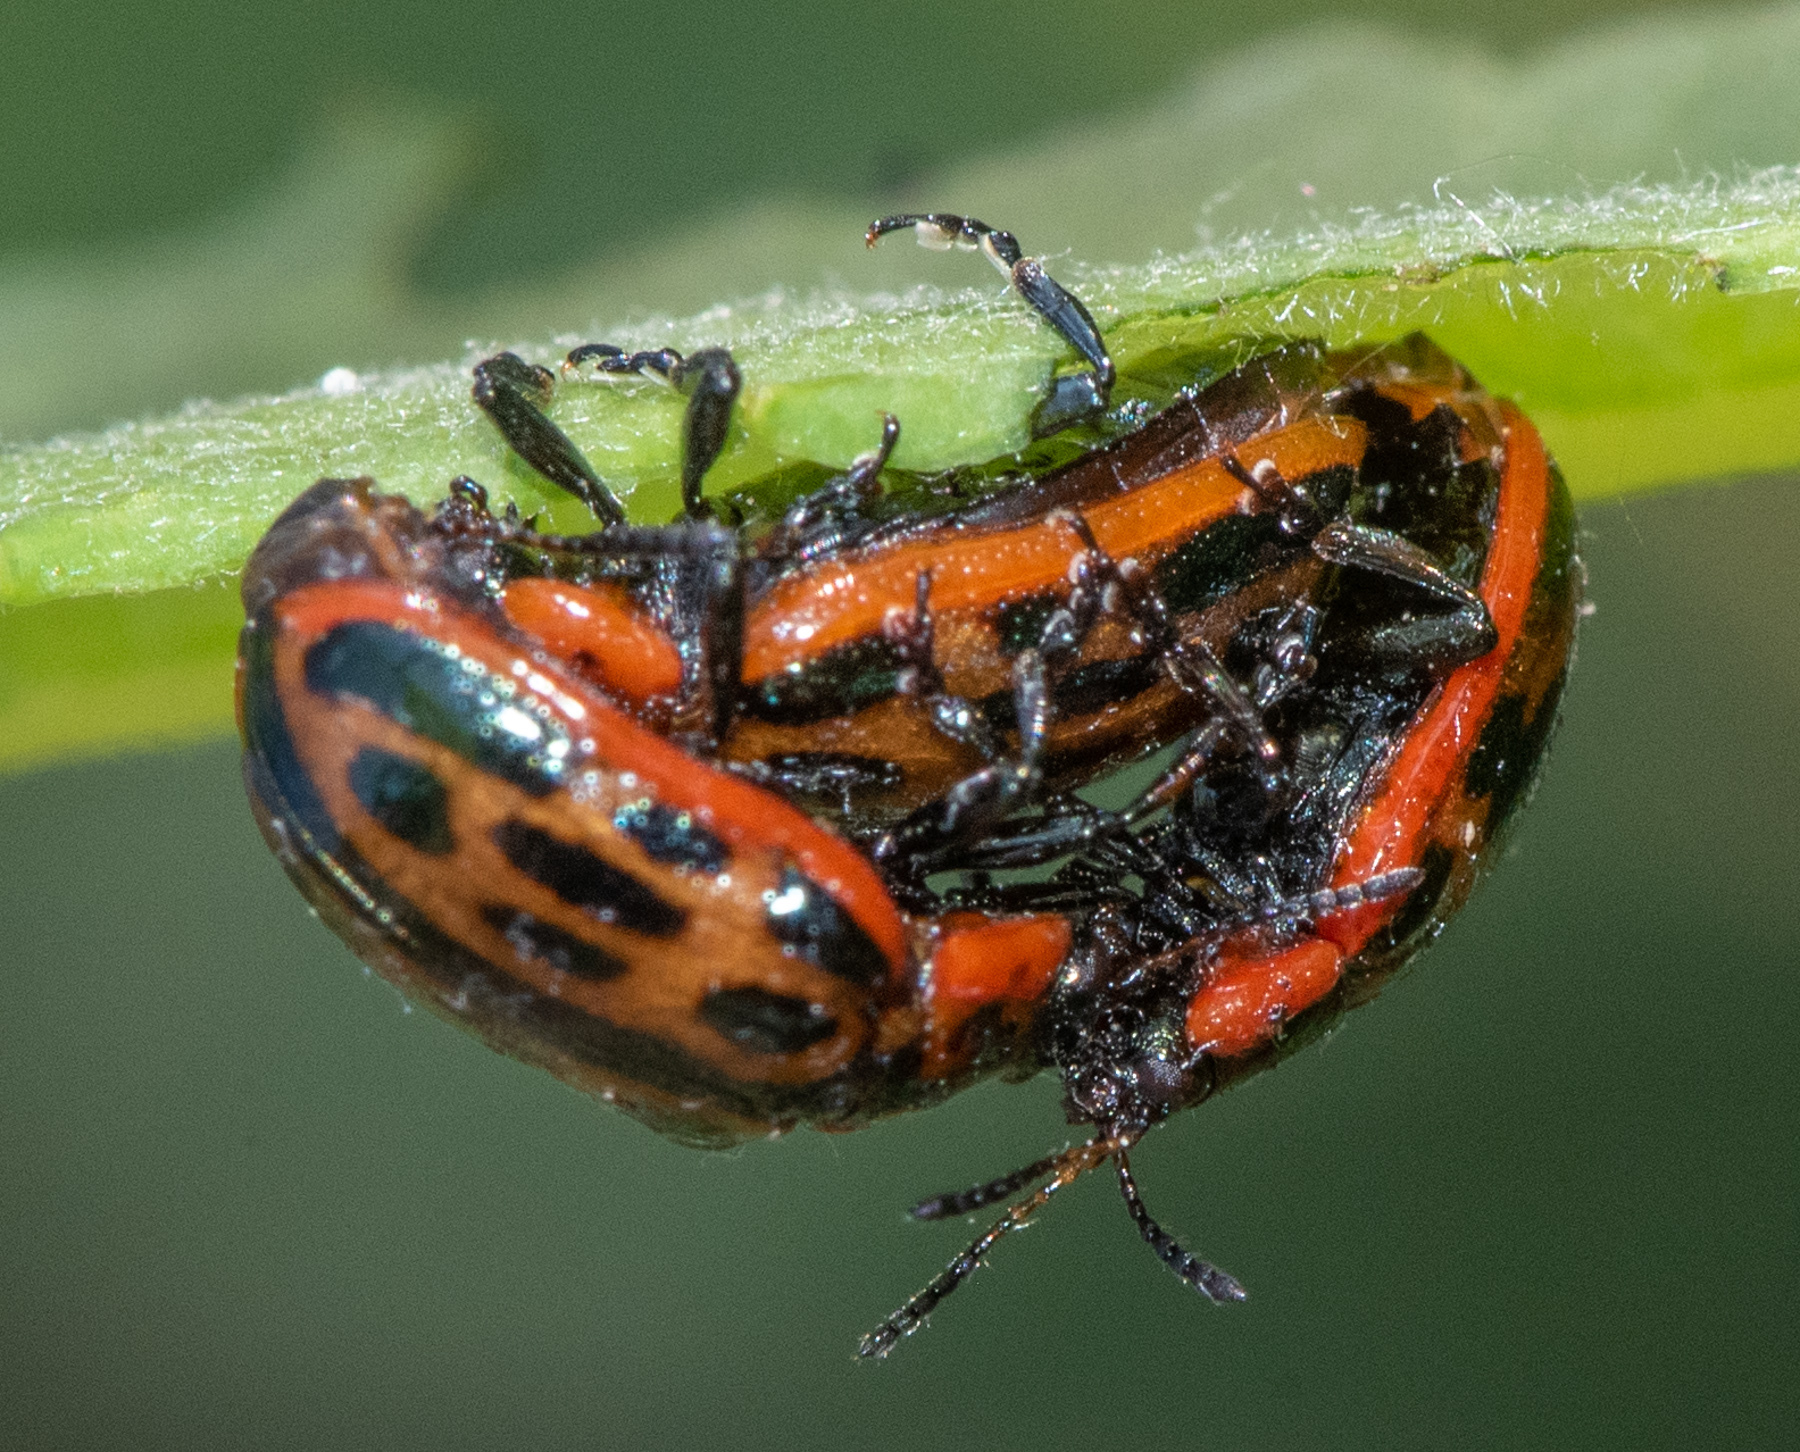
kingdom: Animalia
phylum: Arthropoda
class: Insecta
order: Coleoptera
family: Chrysomelidae
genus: Chrysomela
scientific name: Chrysomela confluens
